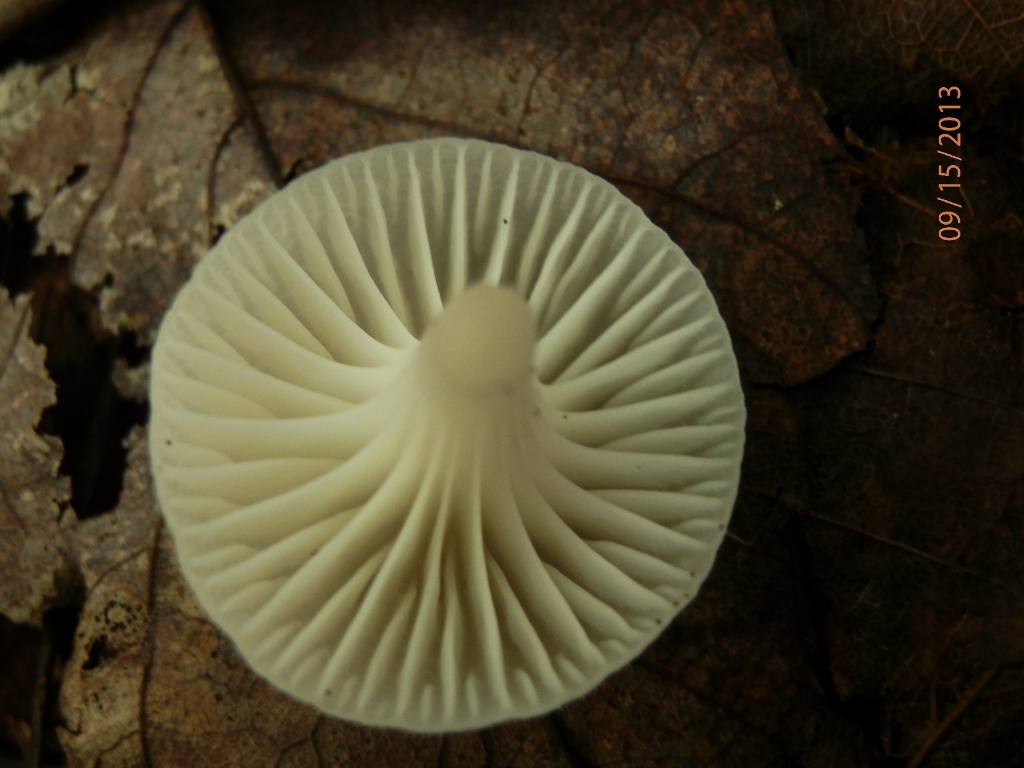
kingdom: Fungi
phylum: Basidiomycota
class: Agaricomycetes
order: Agaricales
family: Hygrophoraceae
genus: Cuphophyllus
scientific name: Cuphophyllus virgineus
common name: Snowy waxcap
